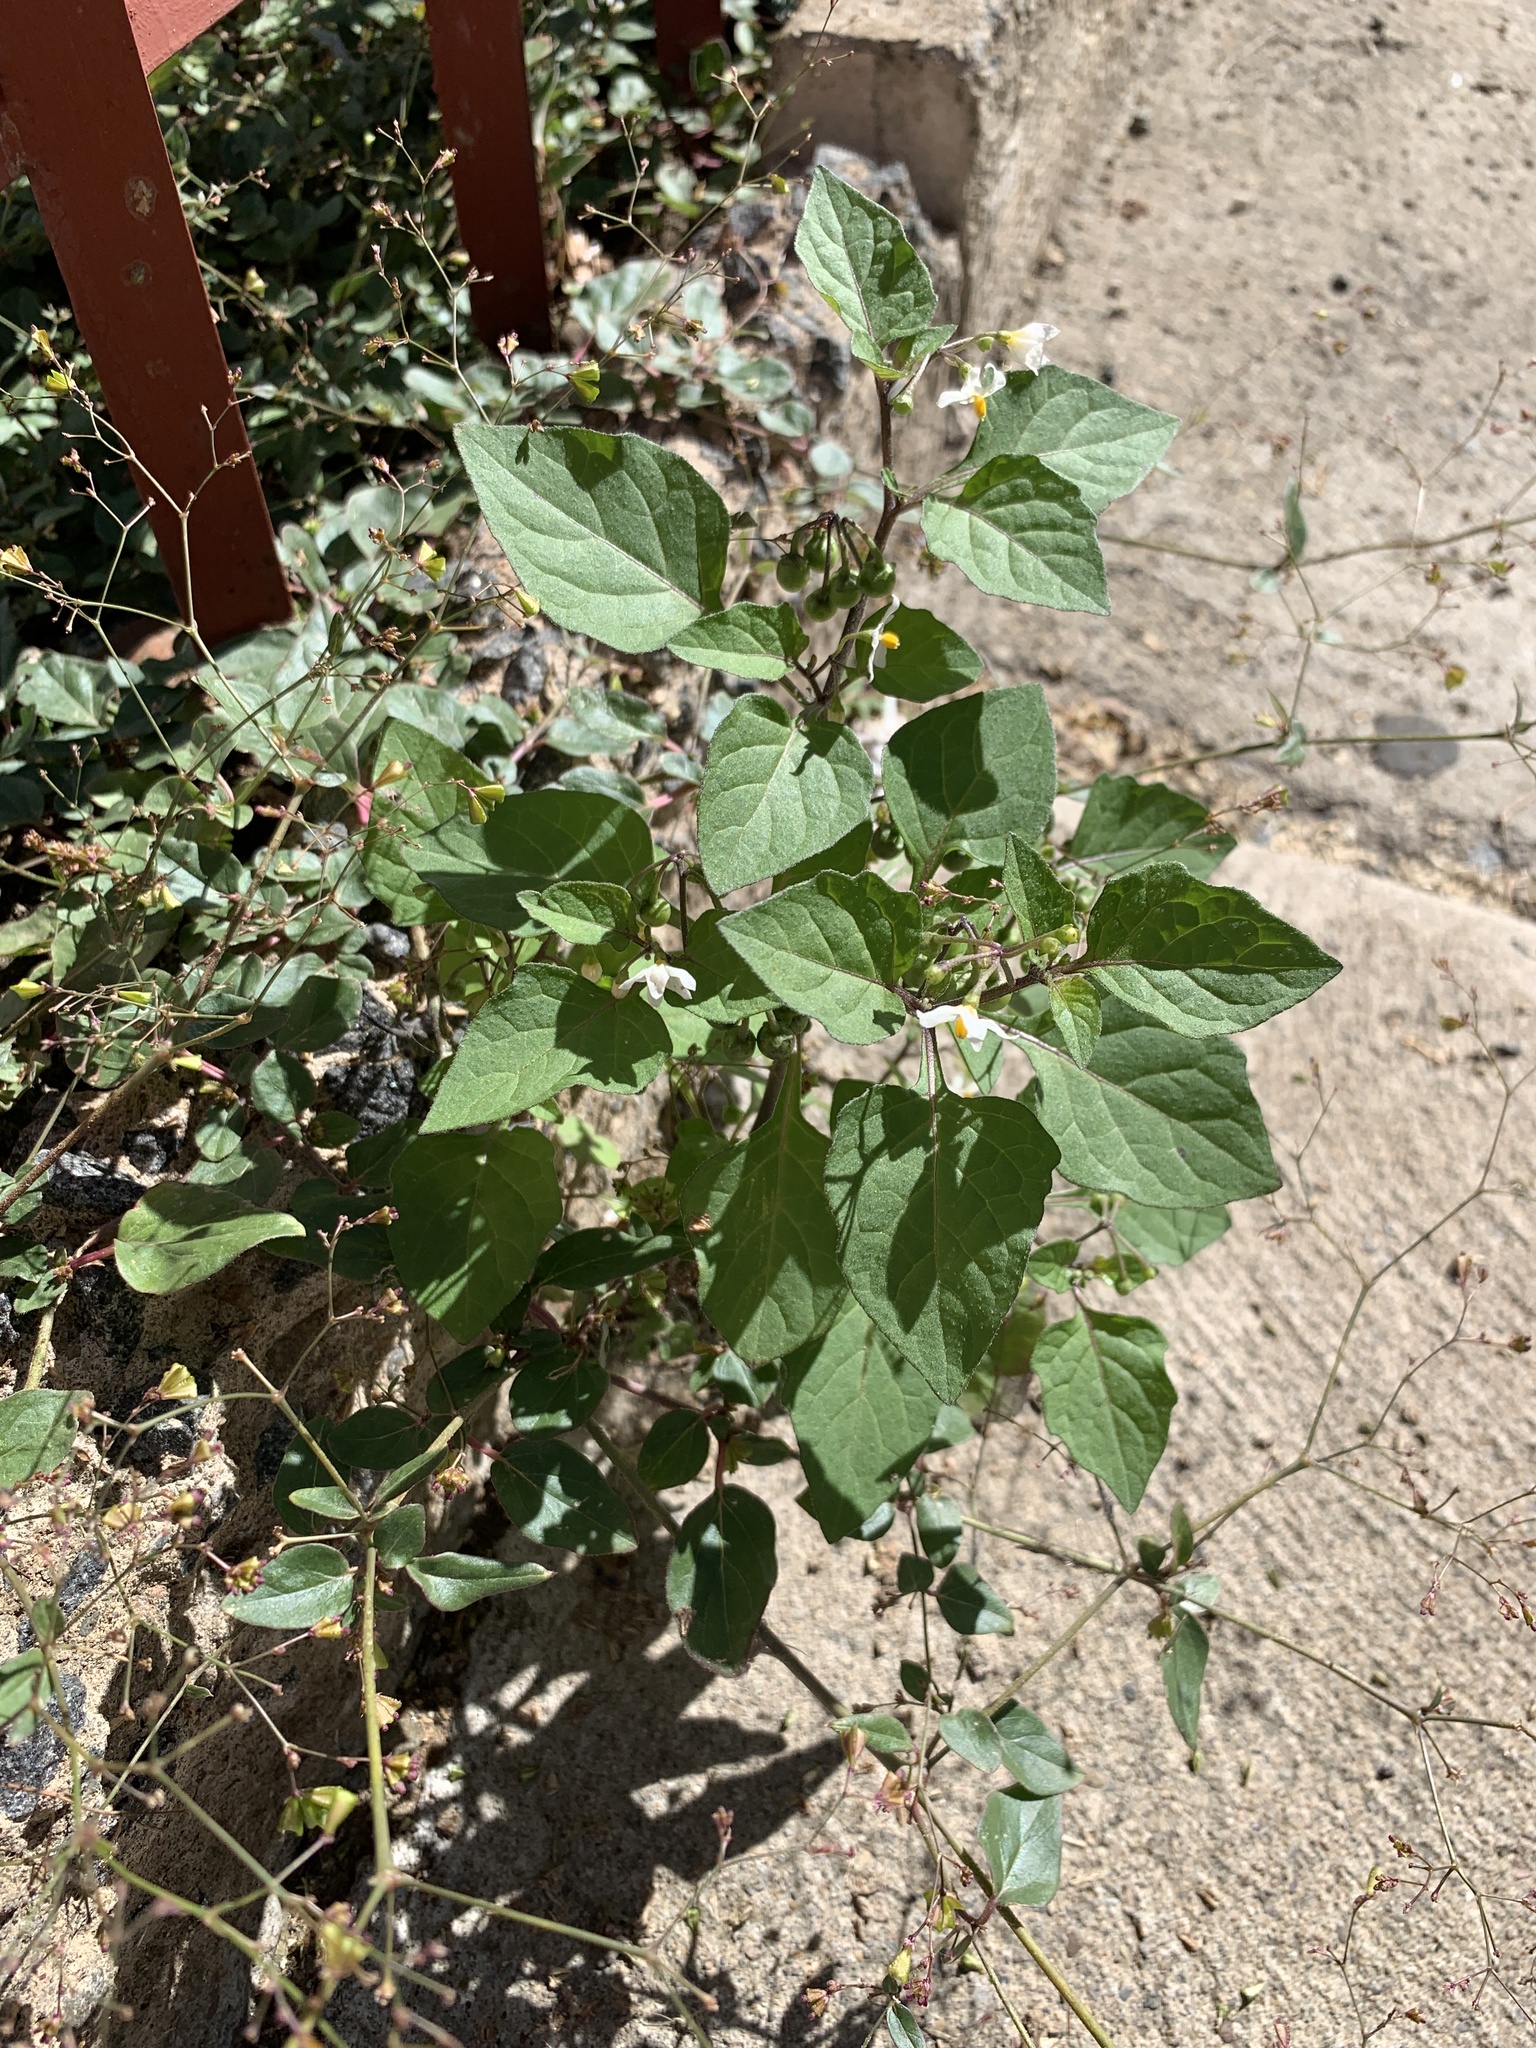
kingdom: Plantae
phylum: Tracheophyta
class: Magnoliopsida
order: Solanales
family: Solanaceae
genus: Solanum
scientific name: Solanum nigrum
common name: Black nightshade
